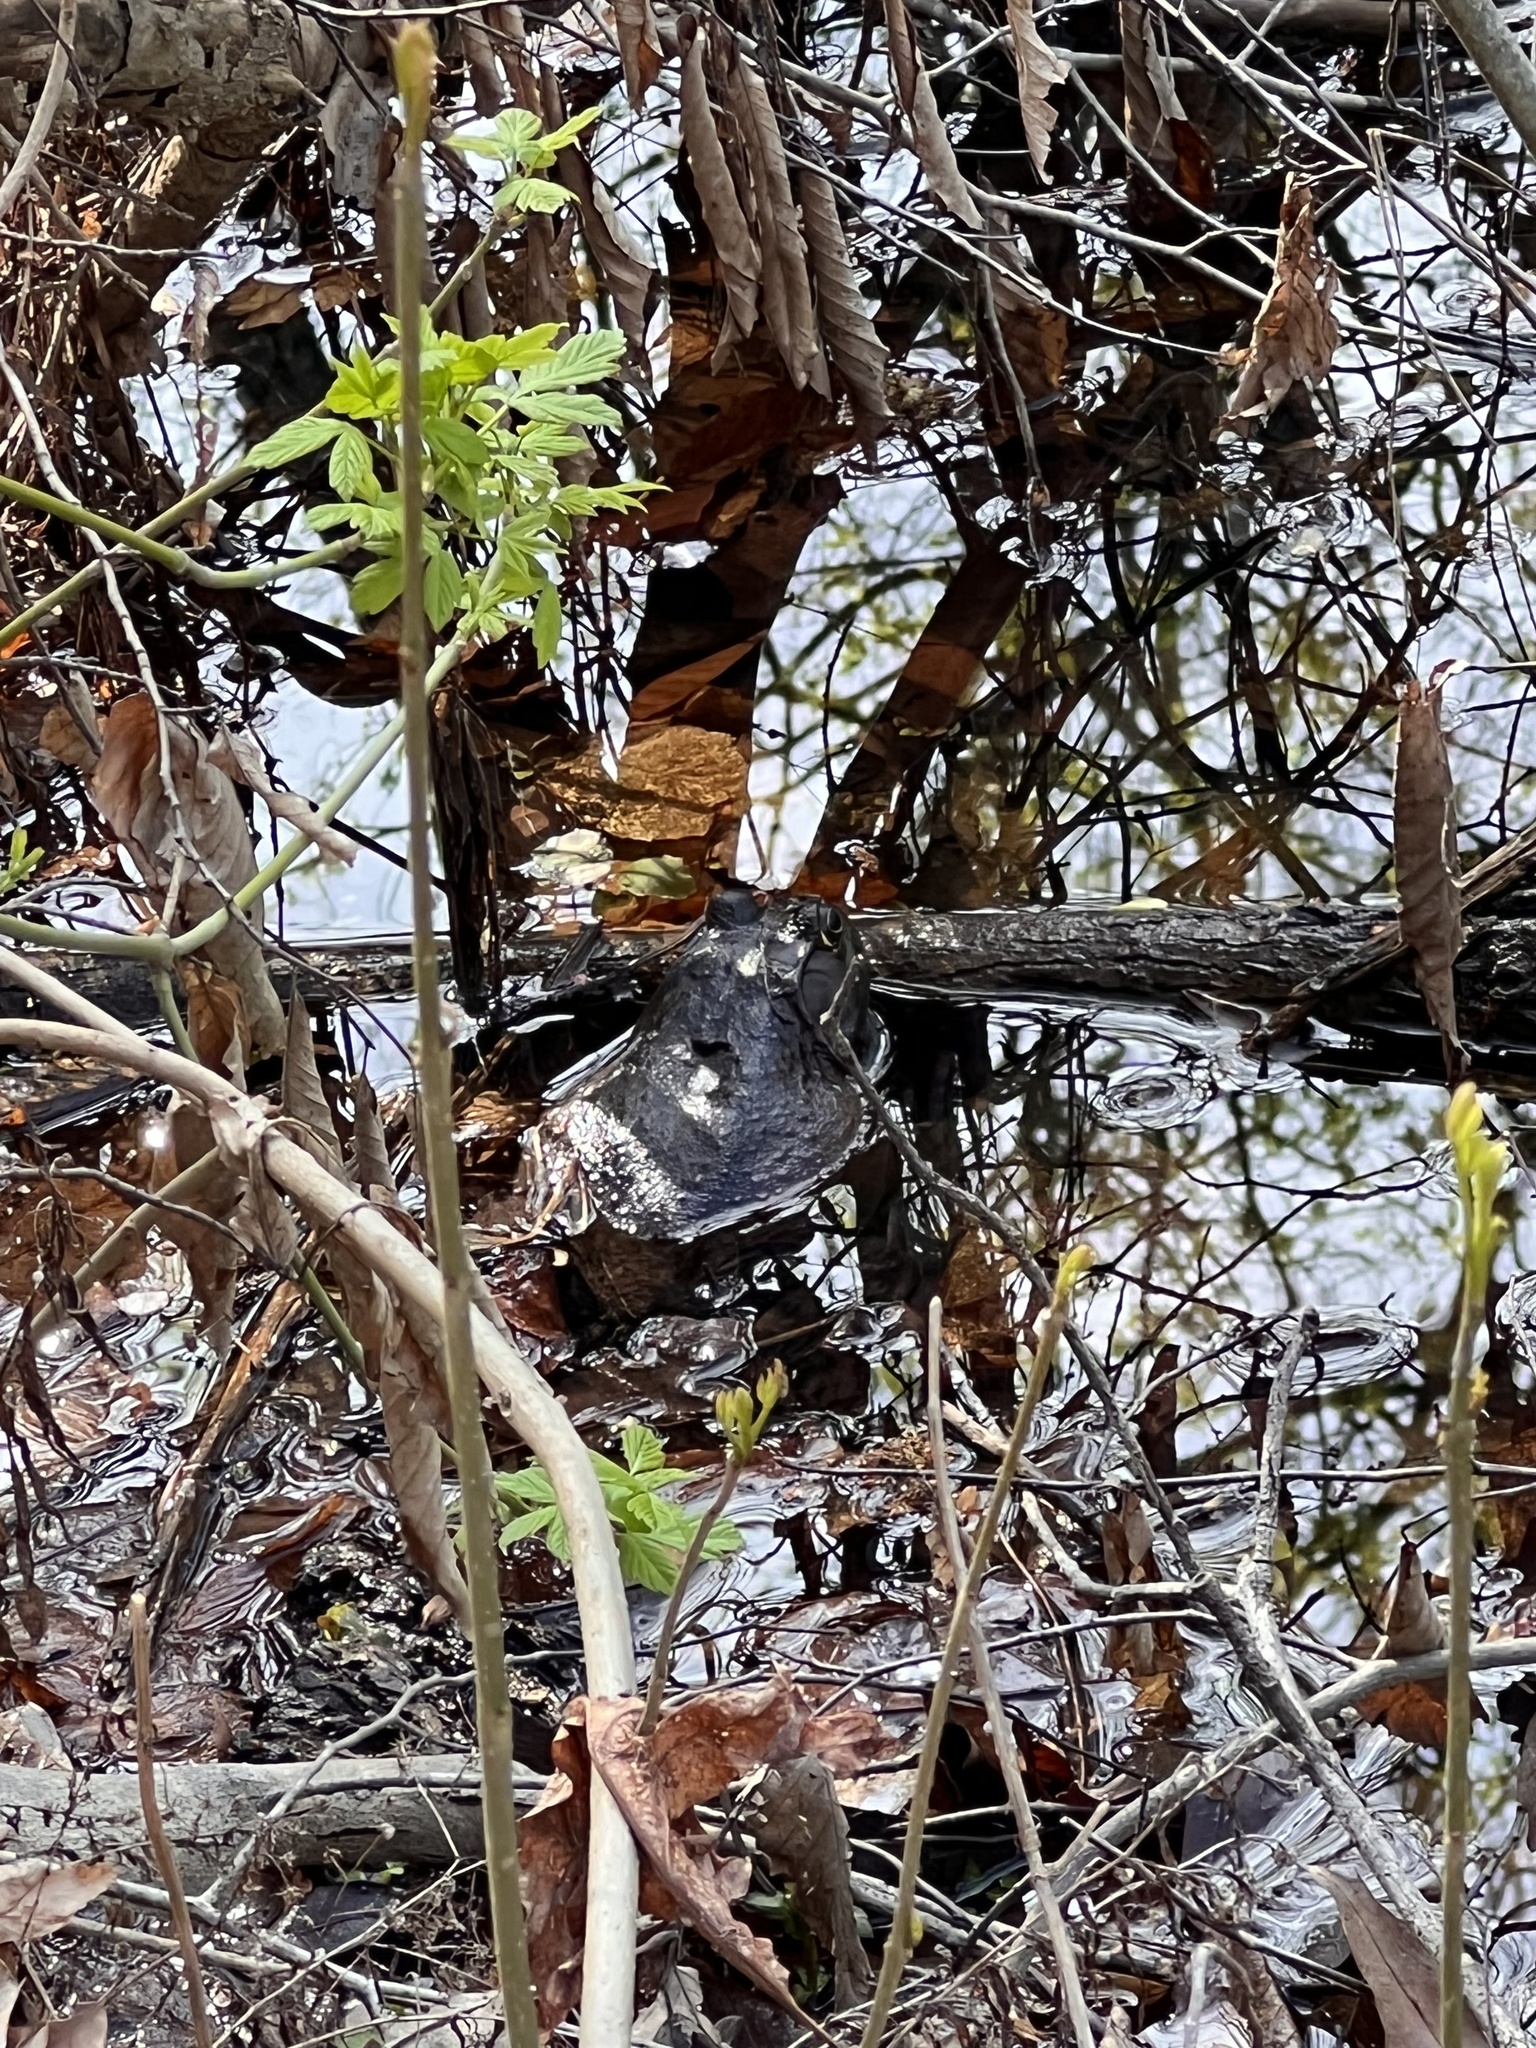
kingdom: Animalia
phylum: Chordata
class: Amphibia
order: Anura
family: Ranidae
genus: Lithobates
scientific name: Lithobates catesbeianus
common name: American bullfrog
